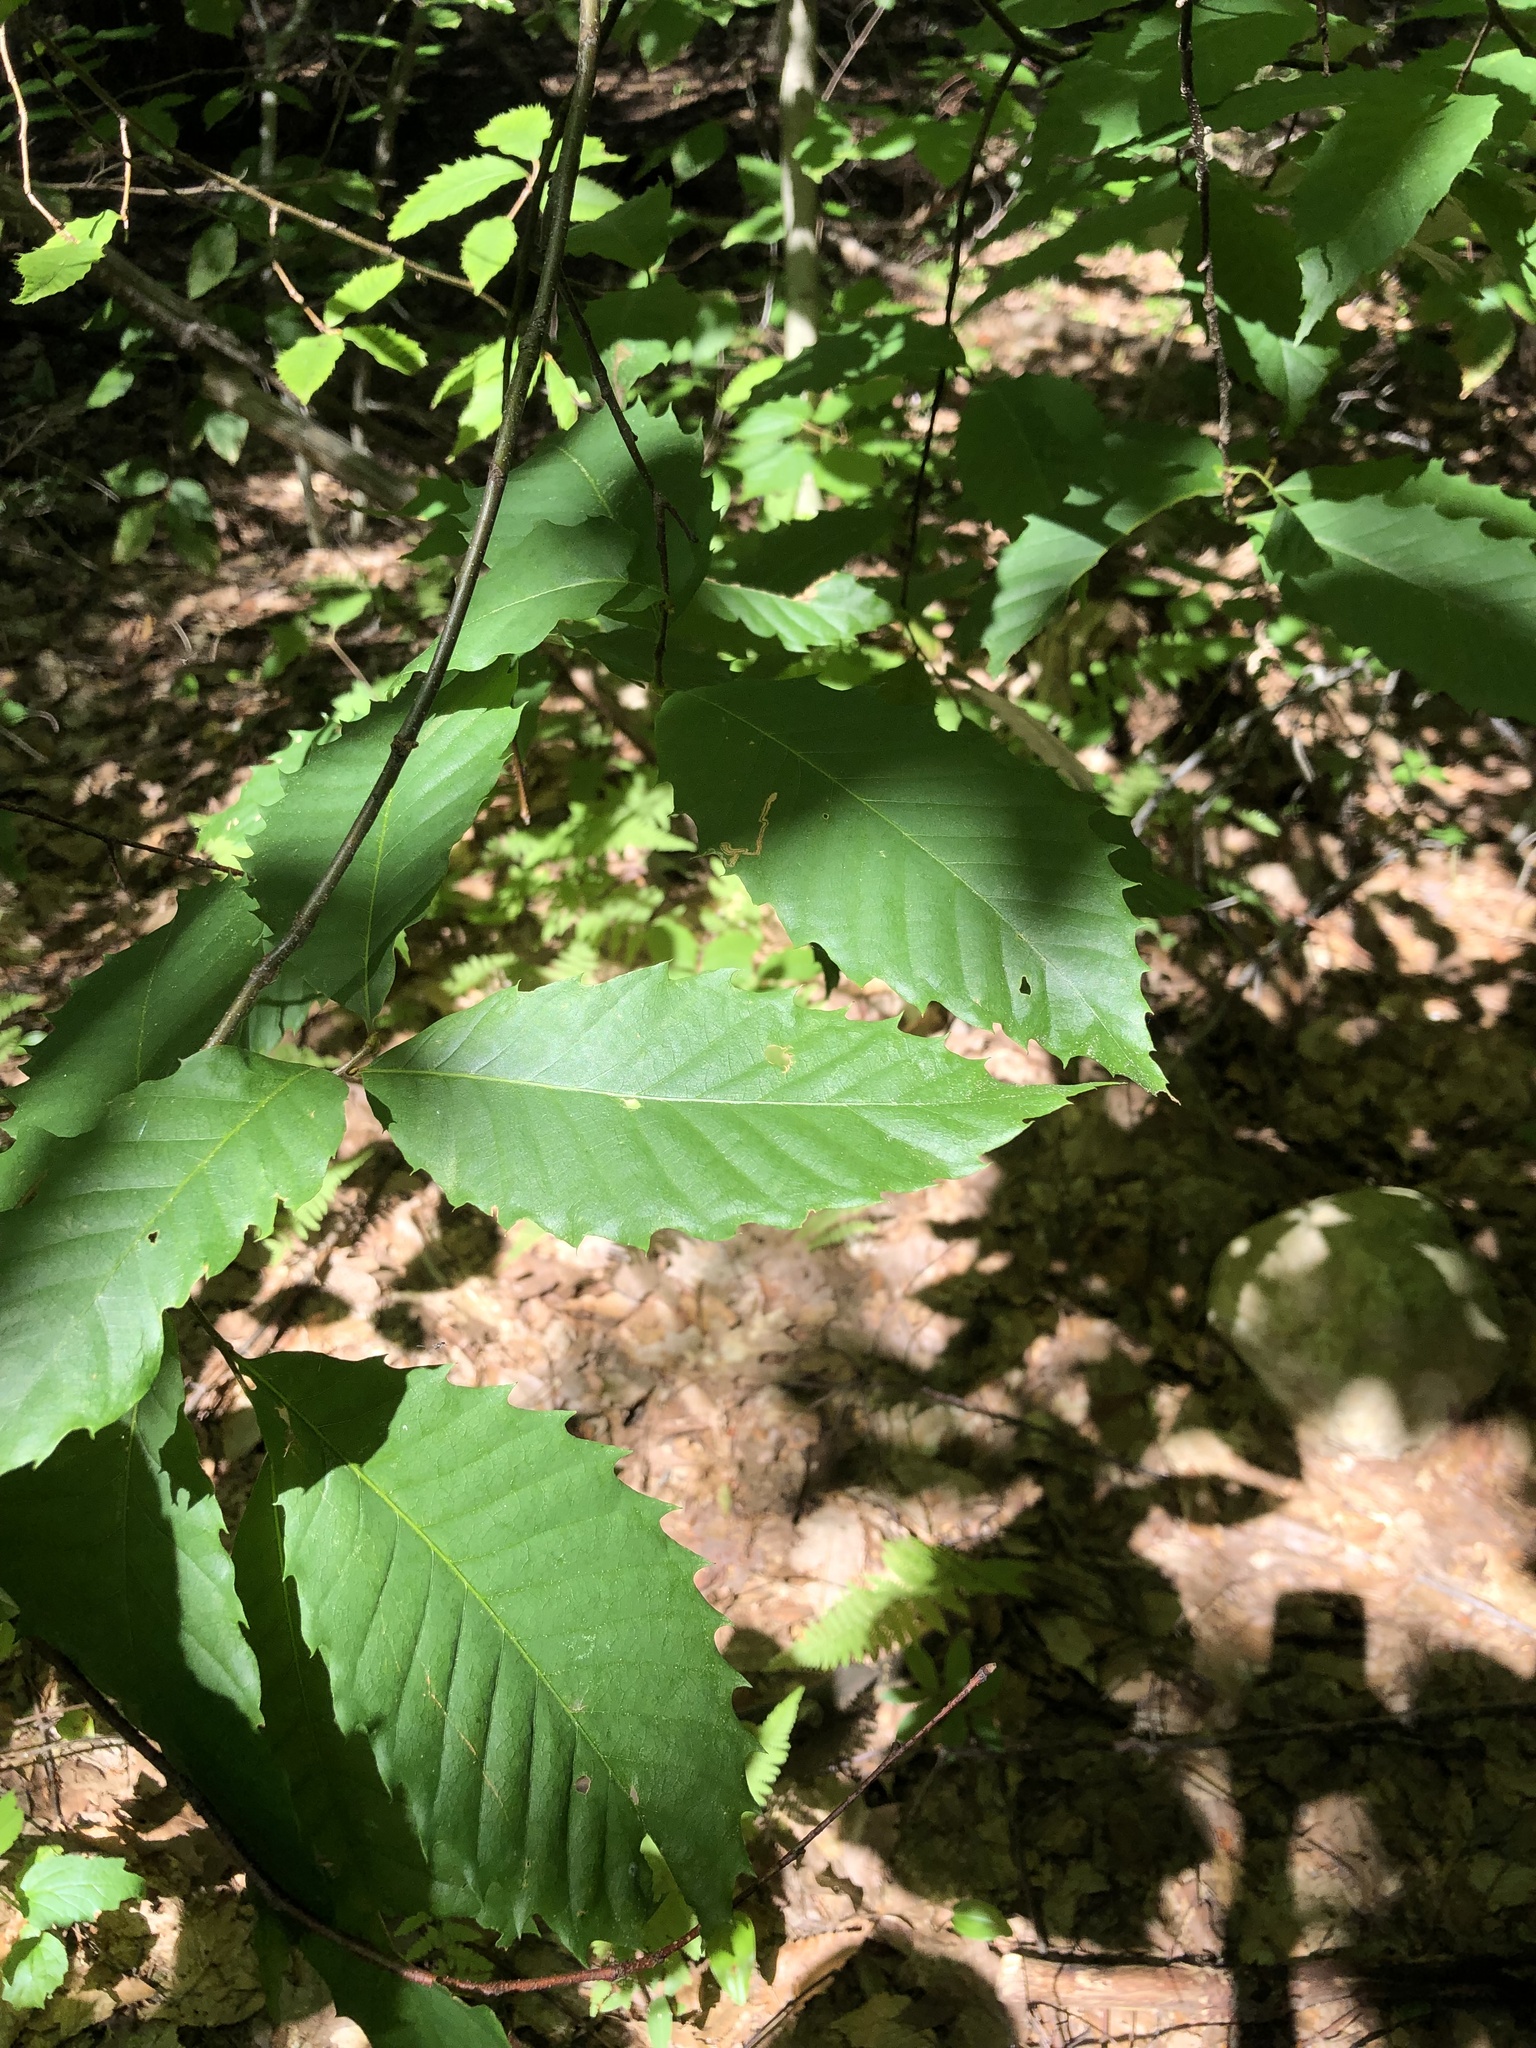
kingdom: Plantae
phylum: Tracheophyta
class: Magnoliopsida
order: Fagales
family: Fagaceae
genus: Castanea
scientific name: Castanea dentata
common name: American chestnut
